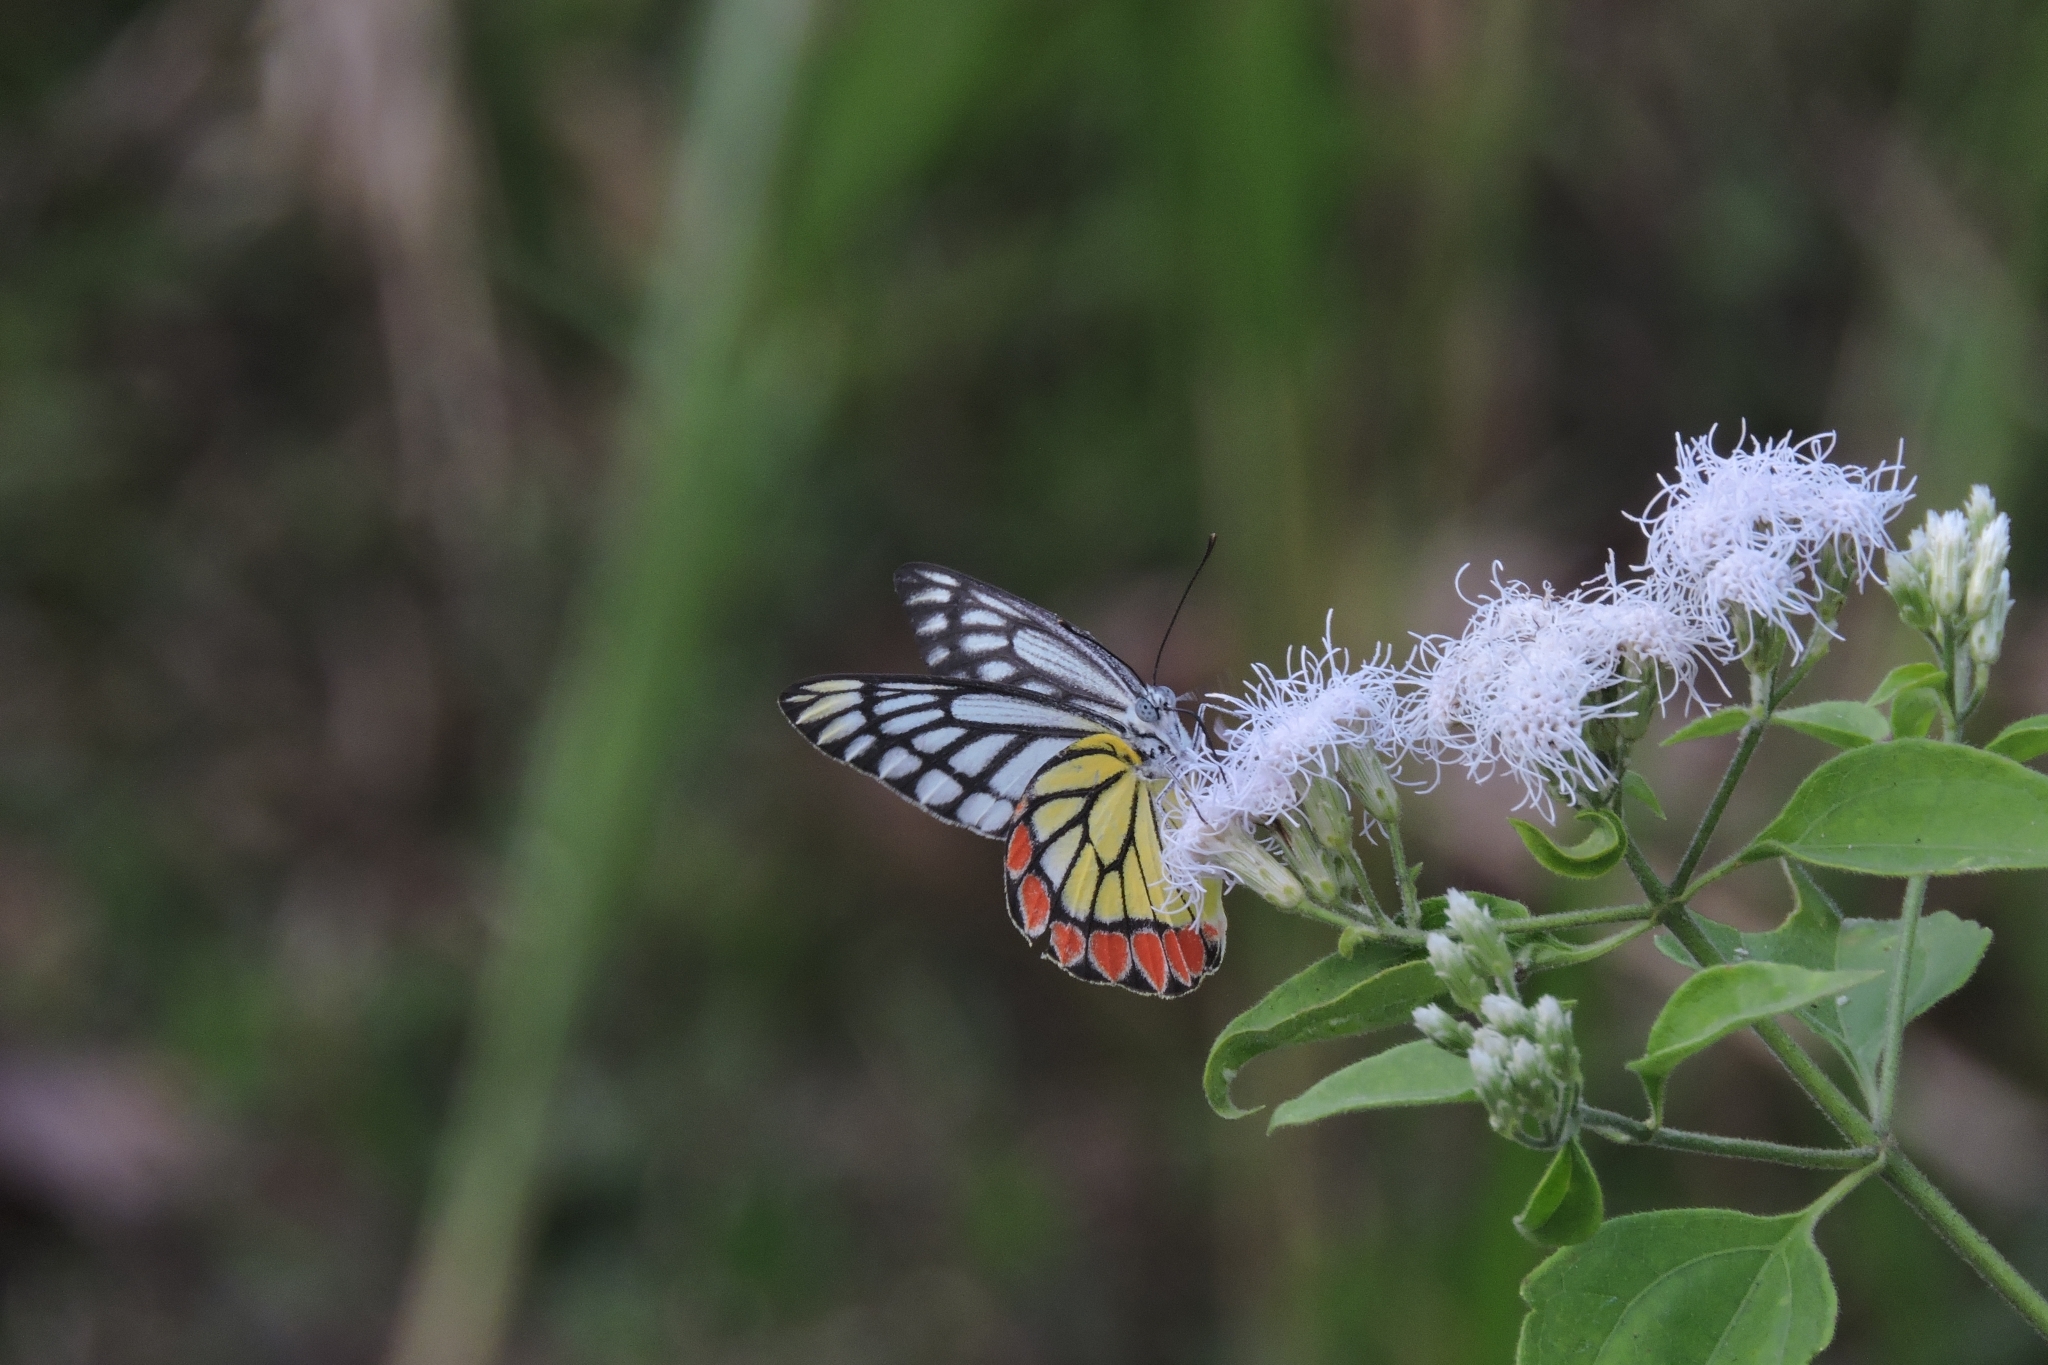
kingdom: Animalia
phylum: Arthropoda
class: Insecta
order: Lepidoptera
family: Pieridae
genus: Delias
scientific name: Delias eucharis
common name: Common jezebel
